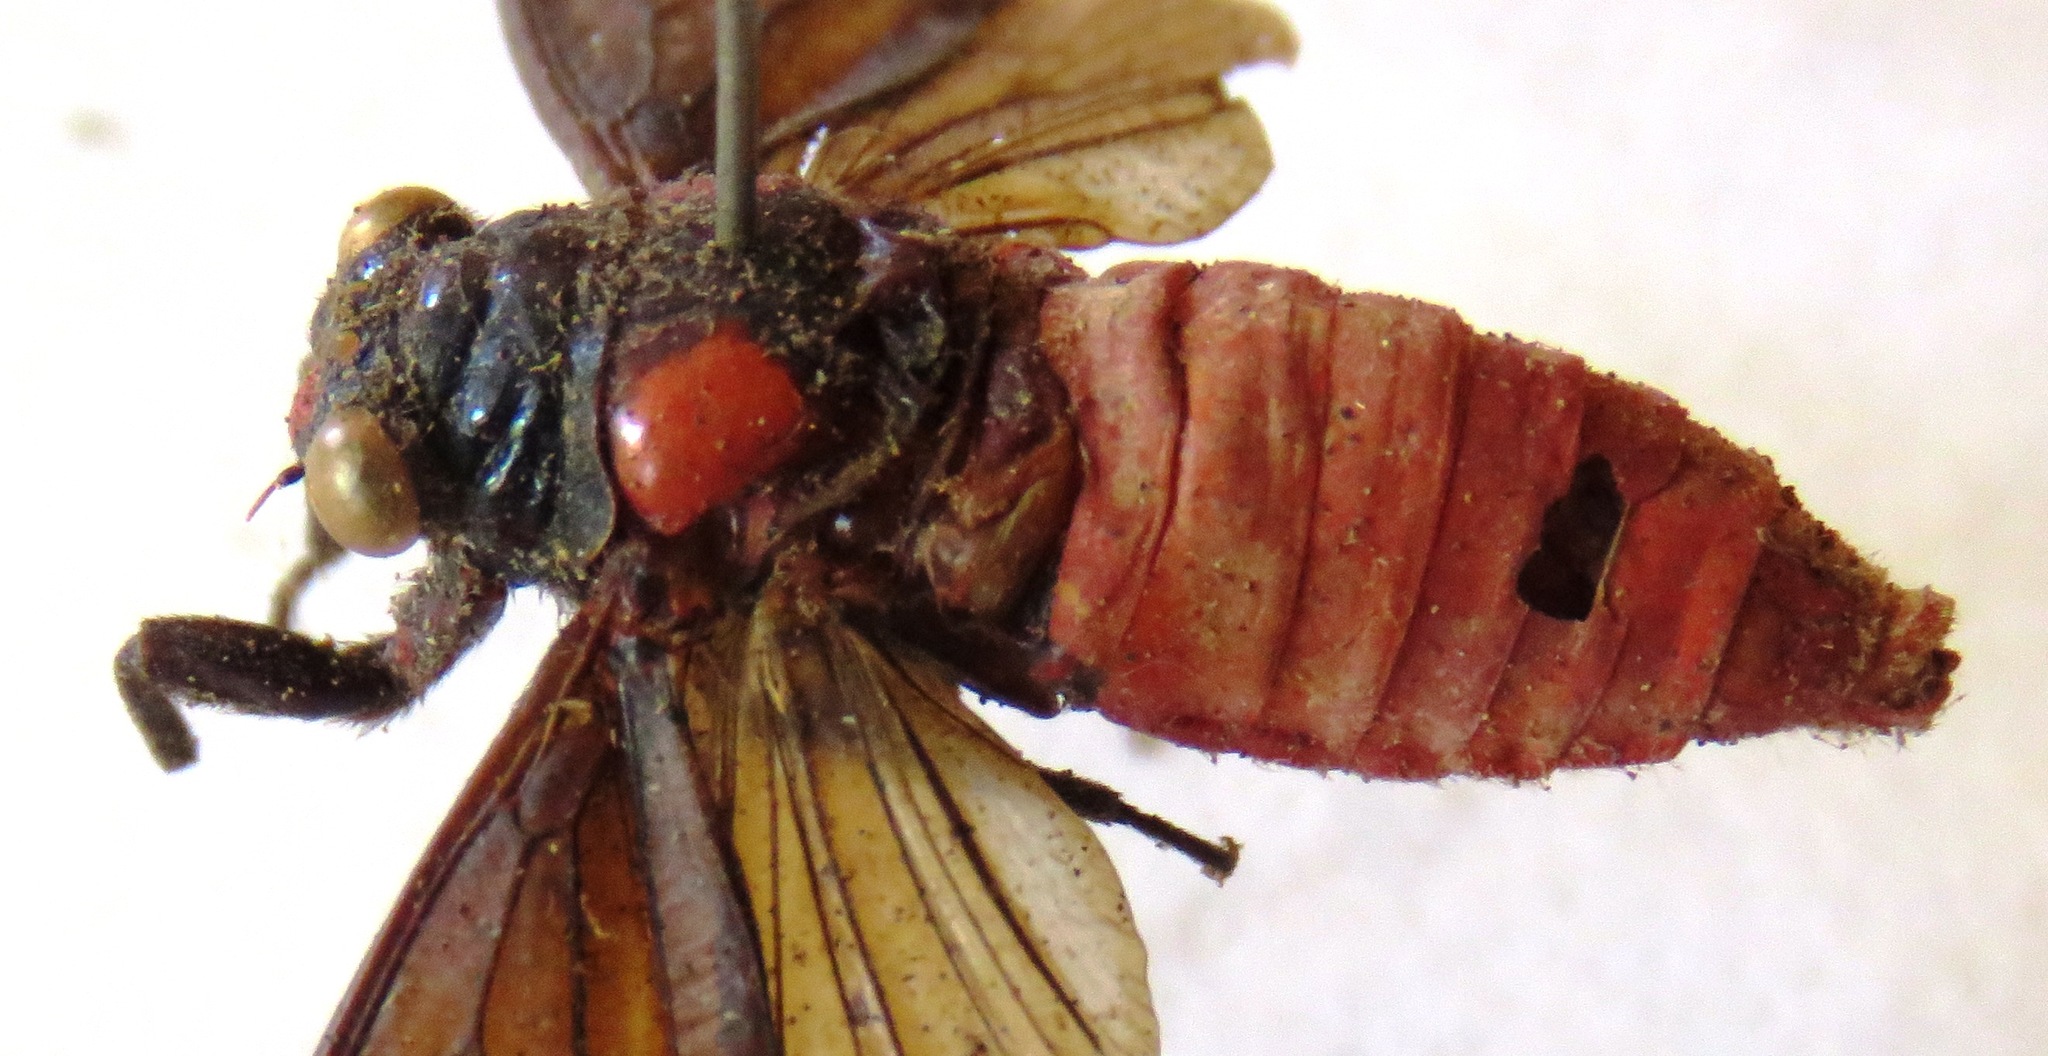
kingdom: Animalia
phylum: Arthropoda
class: Insecta
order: Hemiptera
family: Cicadidae
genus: Huechys
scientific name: Huechys sanguinea
